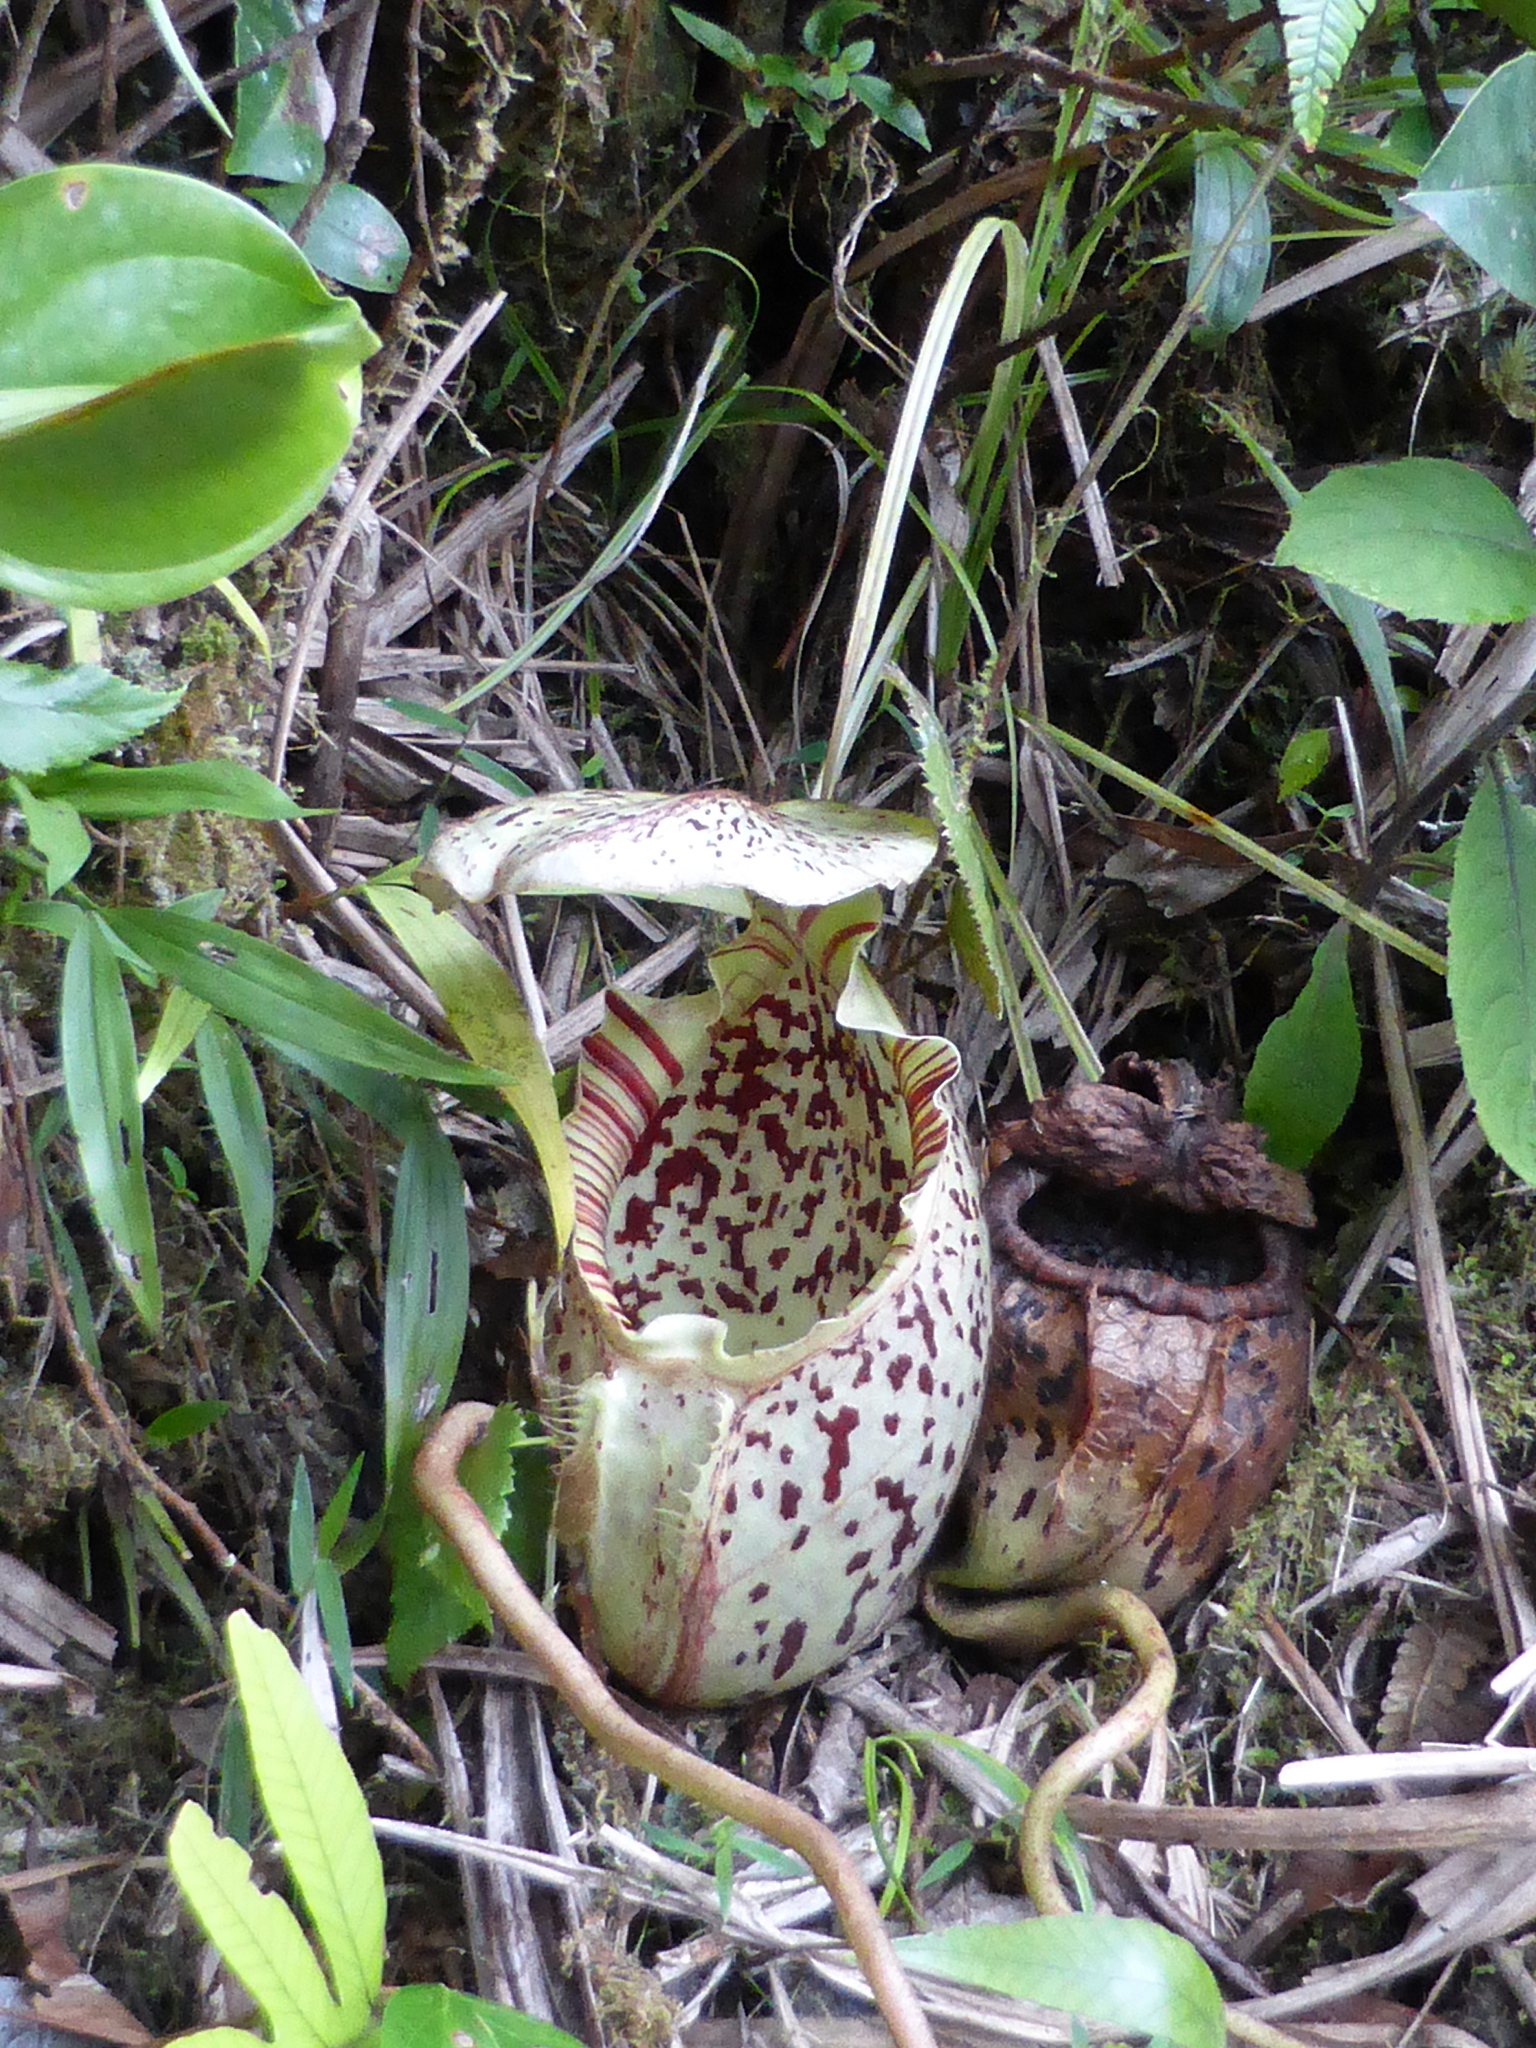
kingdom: Plantae
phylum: Tracheophyta
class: Magnoliopsida
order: Caryophyllales
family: Nepenthaceae
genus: Nepenthes
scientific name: Nepenthes burbidgeae
